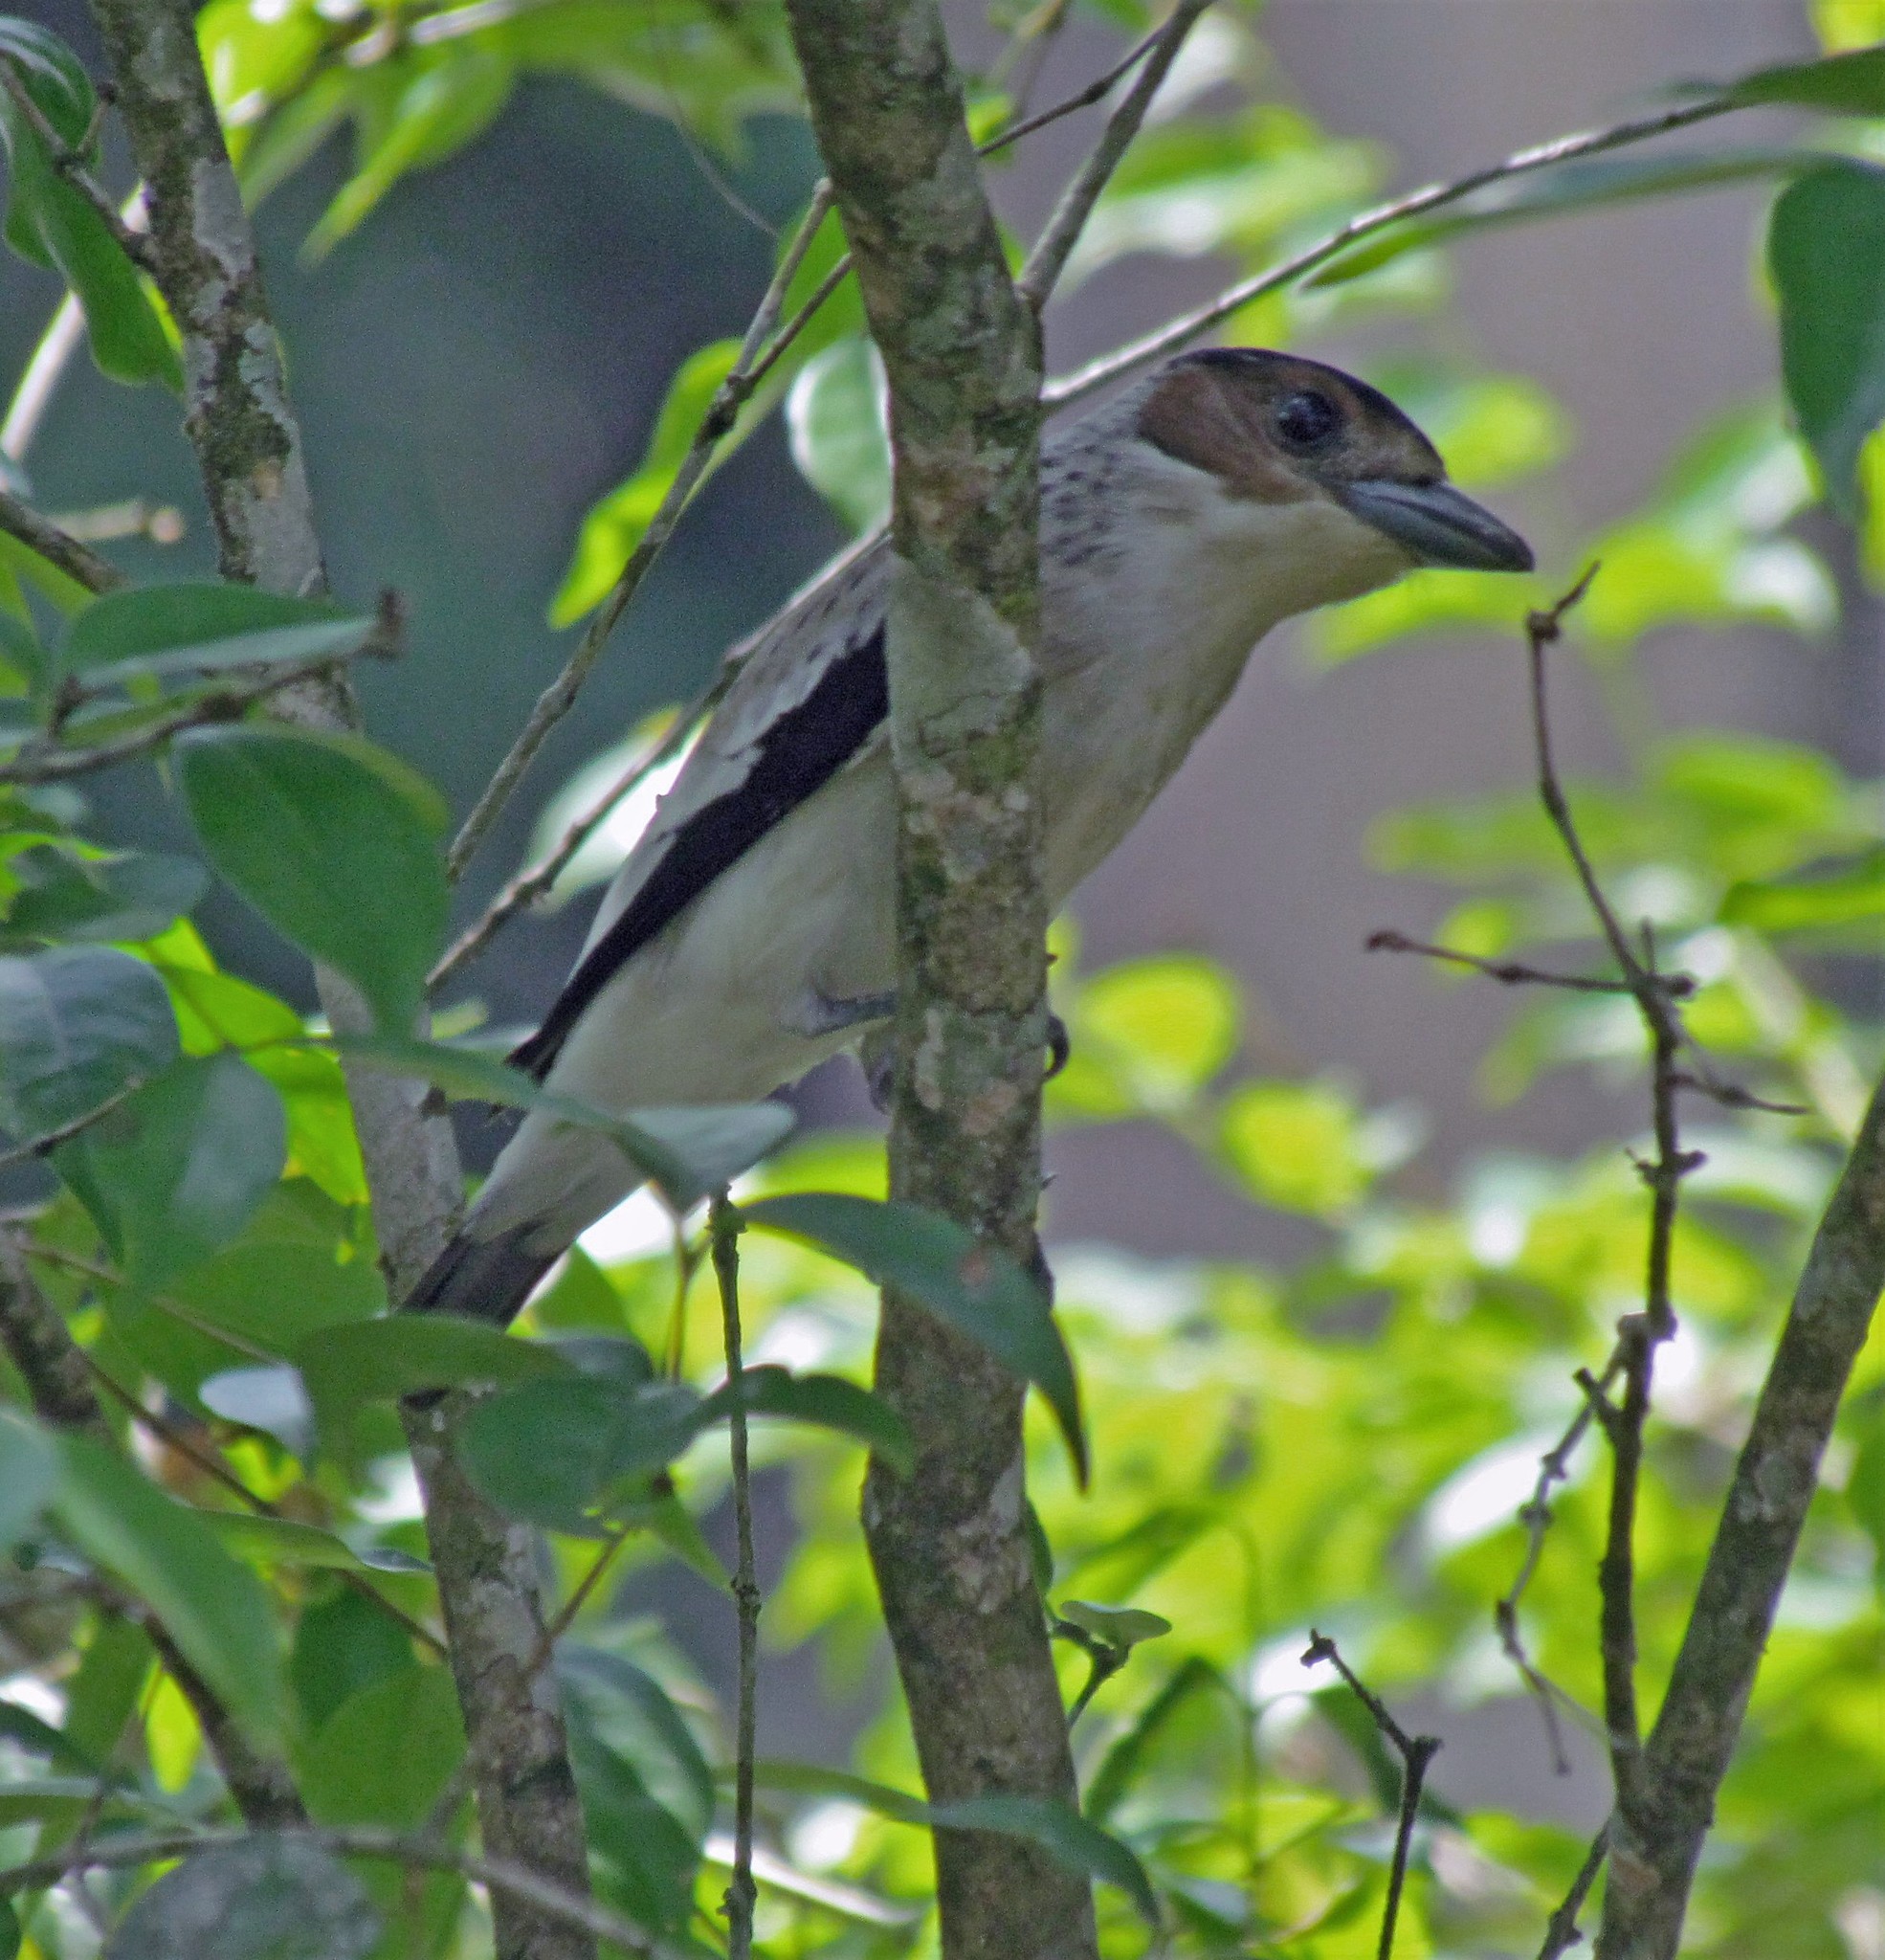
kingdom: Animalia
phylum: Chordata
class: Aves
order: Passeriformes
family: Cotingidae
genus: Tityra
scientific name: Tityra inquisitor
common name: Black-crowned tityra
